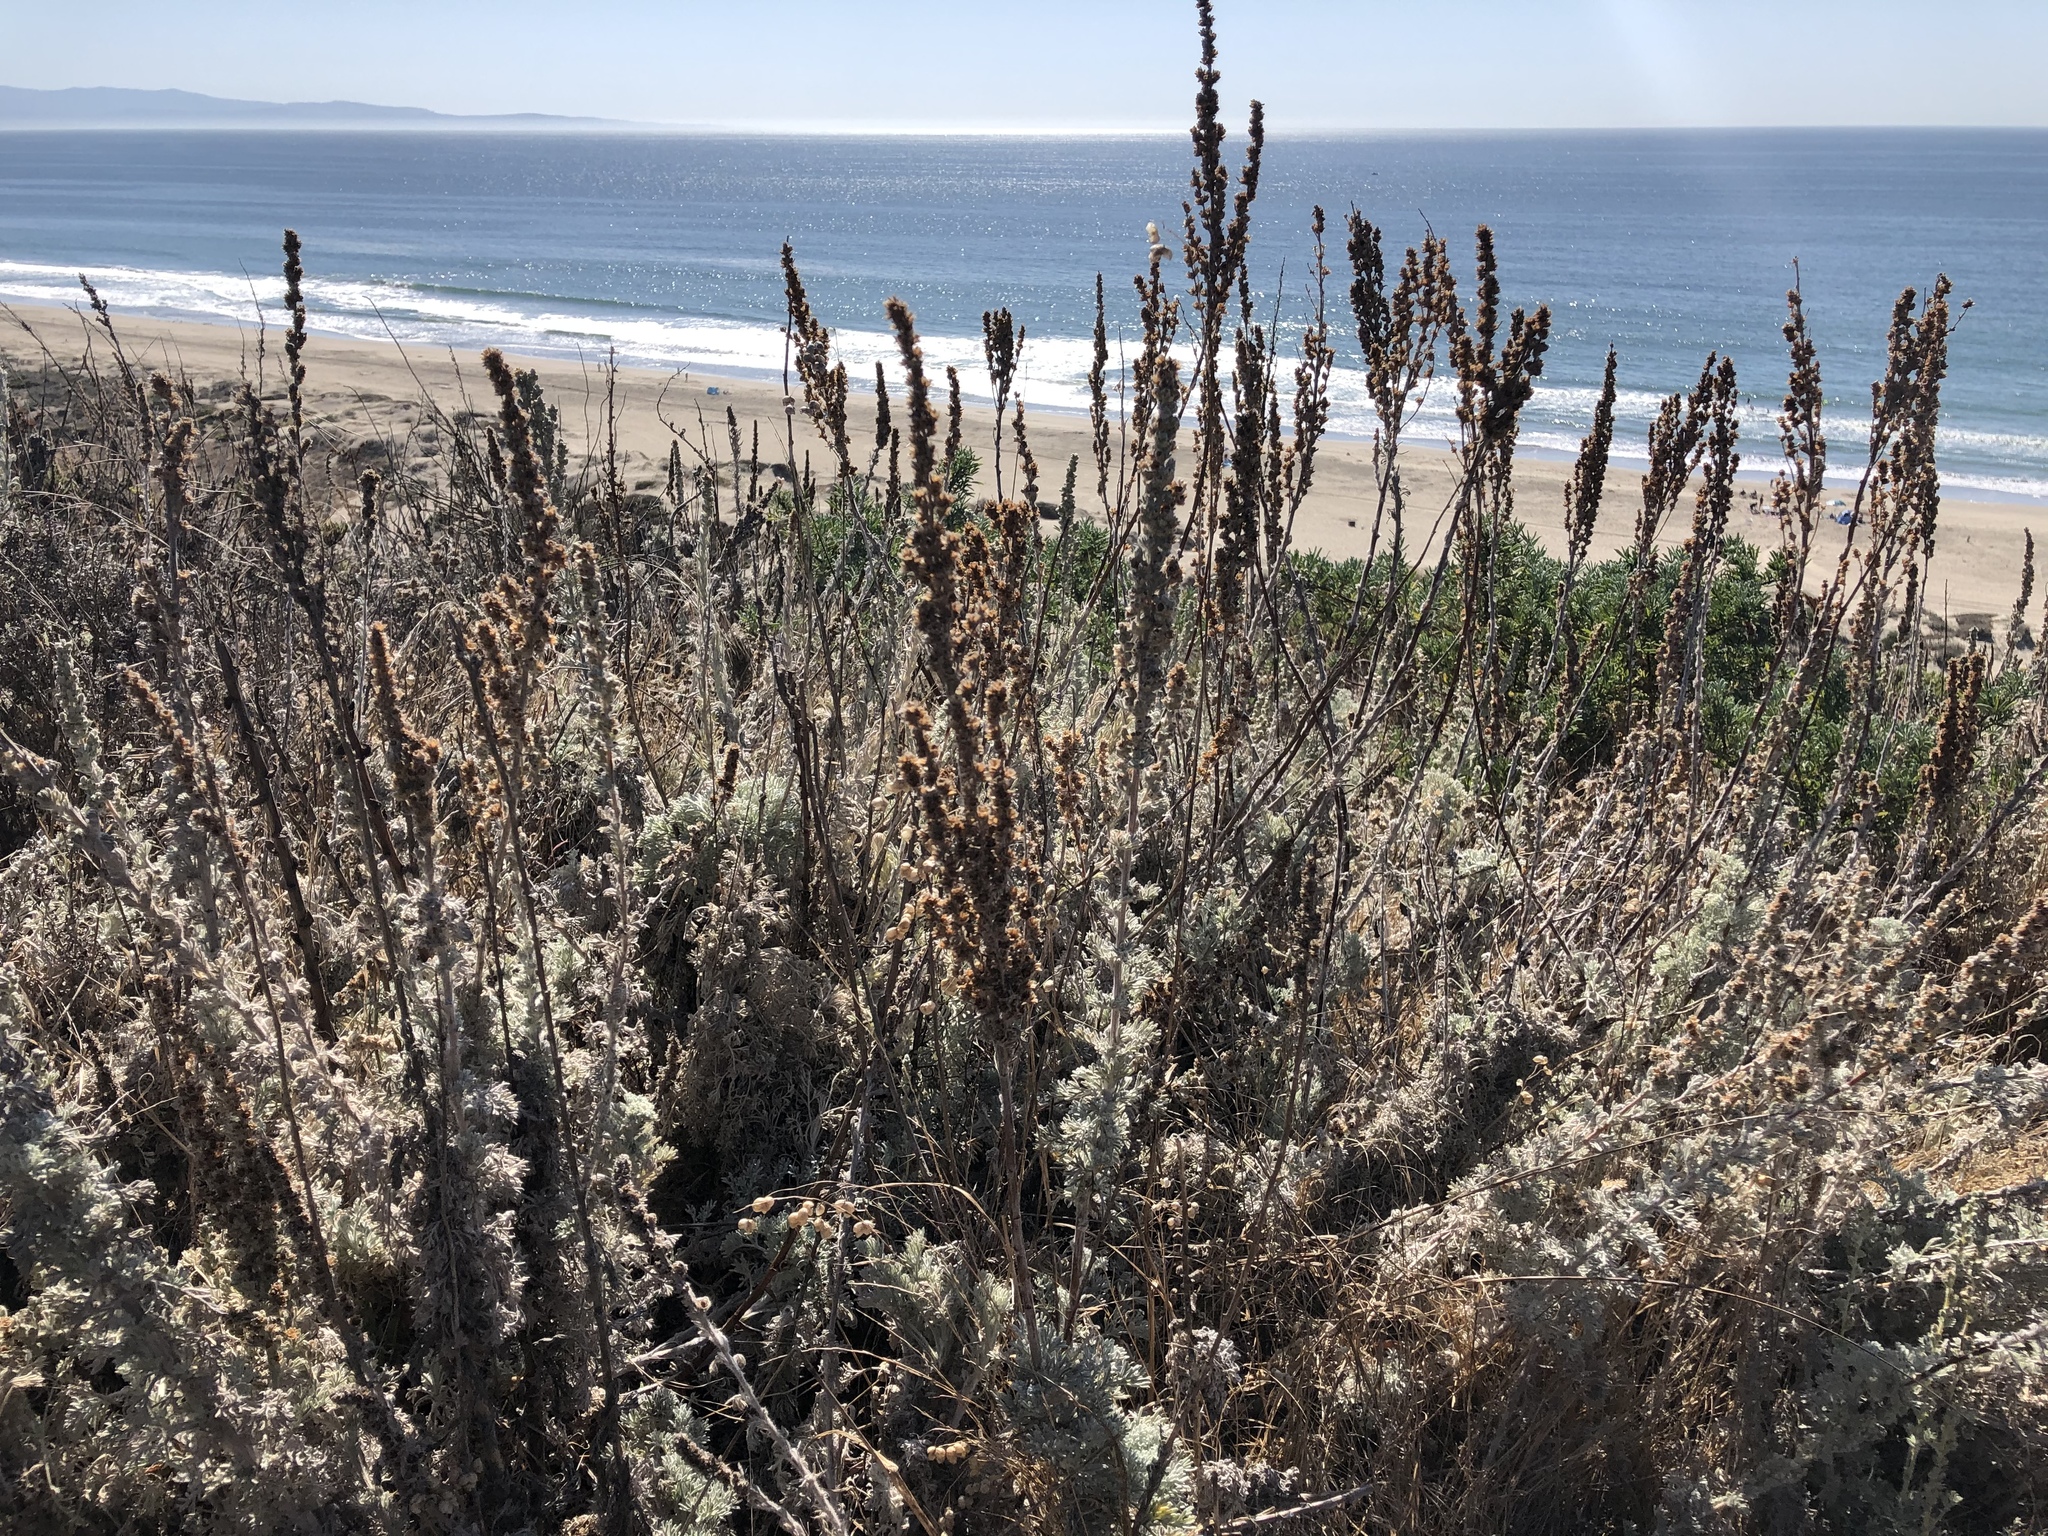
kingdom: Plantae
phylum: Tracheophyta
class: Magnoliopsida
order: Asterales
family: Asteraceae
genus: Artemisia
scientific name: Artemisia pycnocephala
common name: Coastal sagewort
